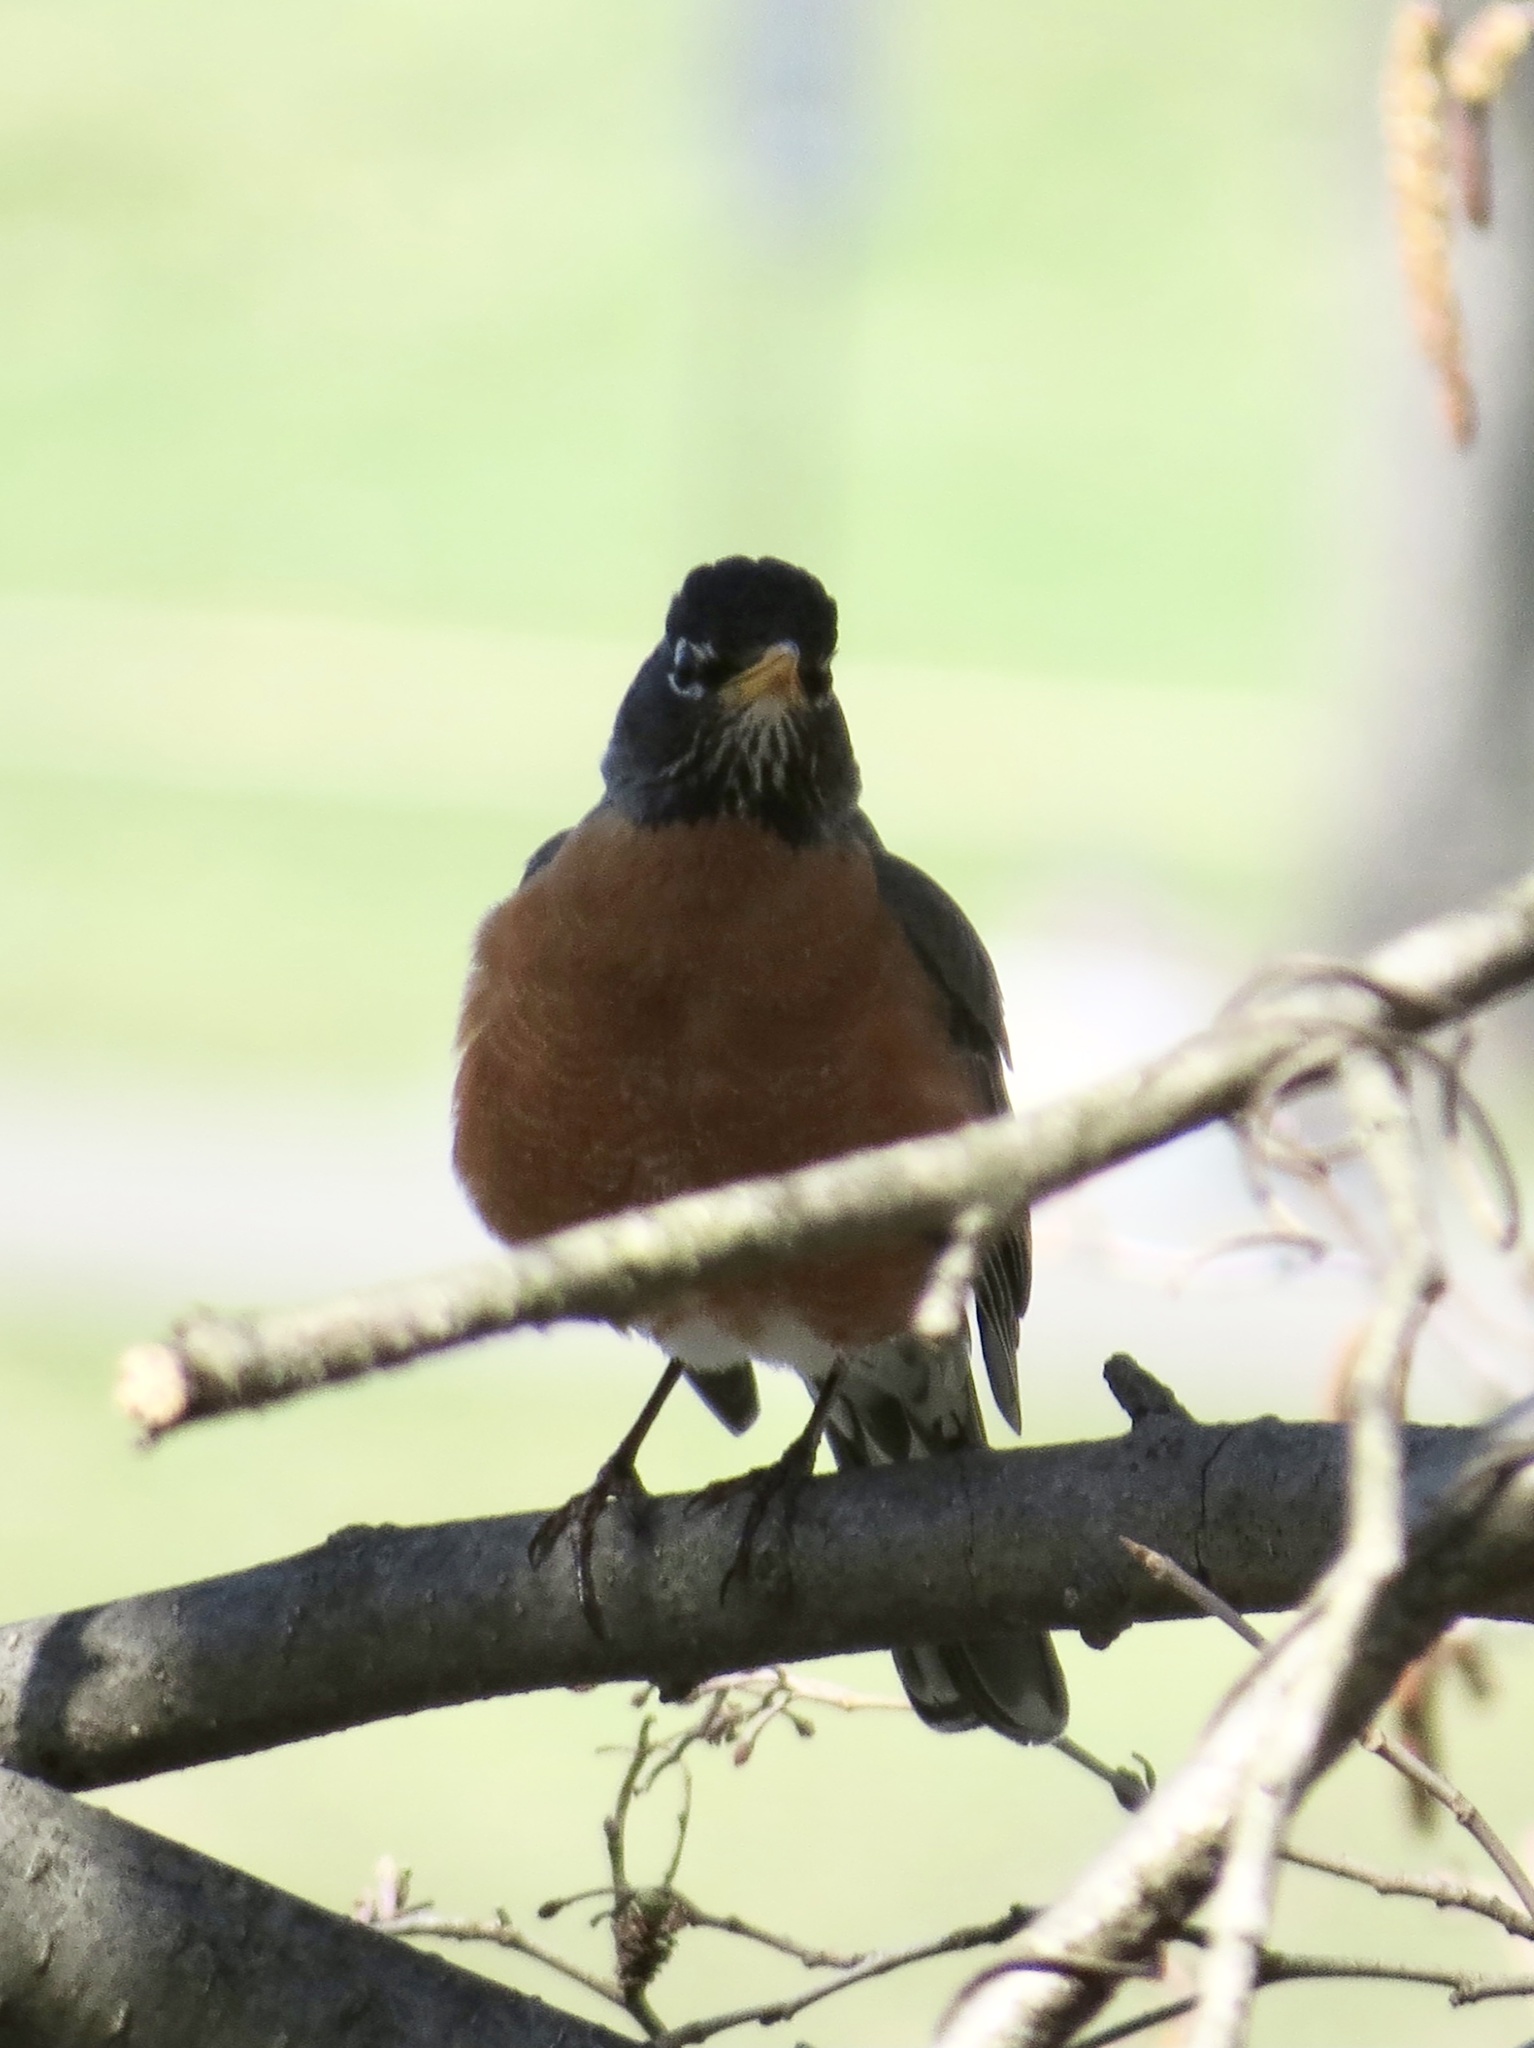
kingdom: Animalia
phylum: Chordata
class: Aves
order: Passeriformes
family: Turdidae
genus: Turdus
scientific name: Turdus migratorius
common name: American robin
